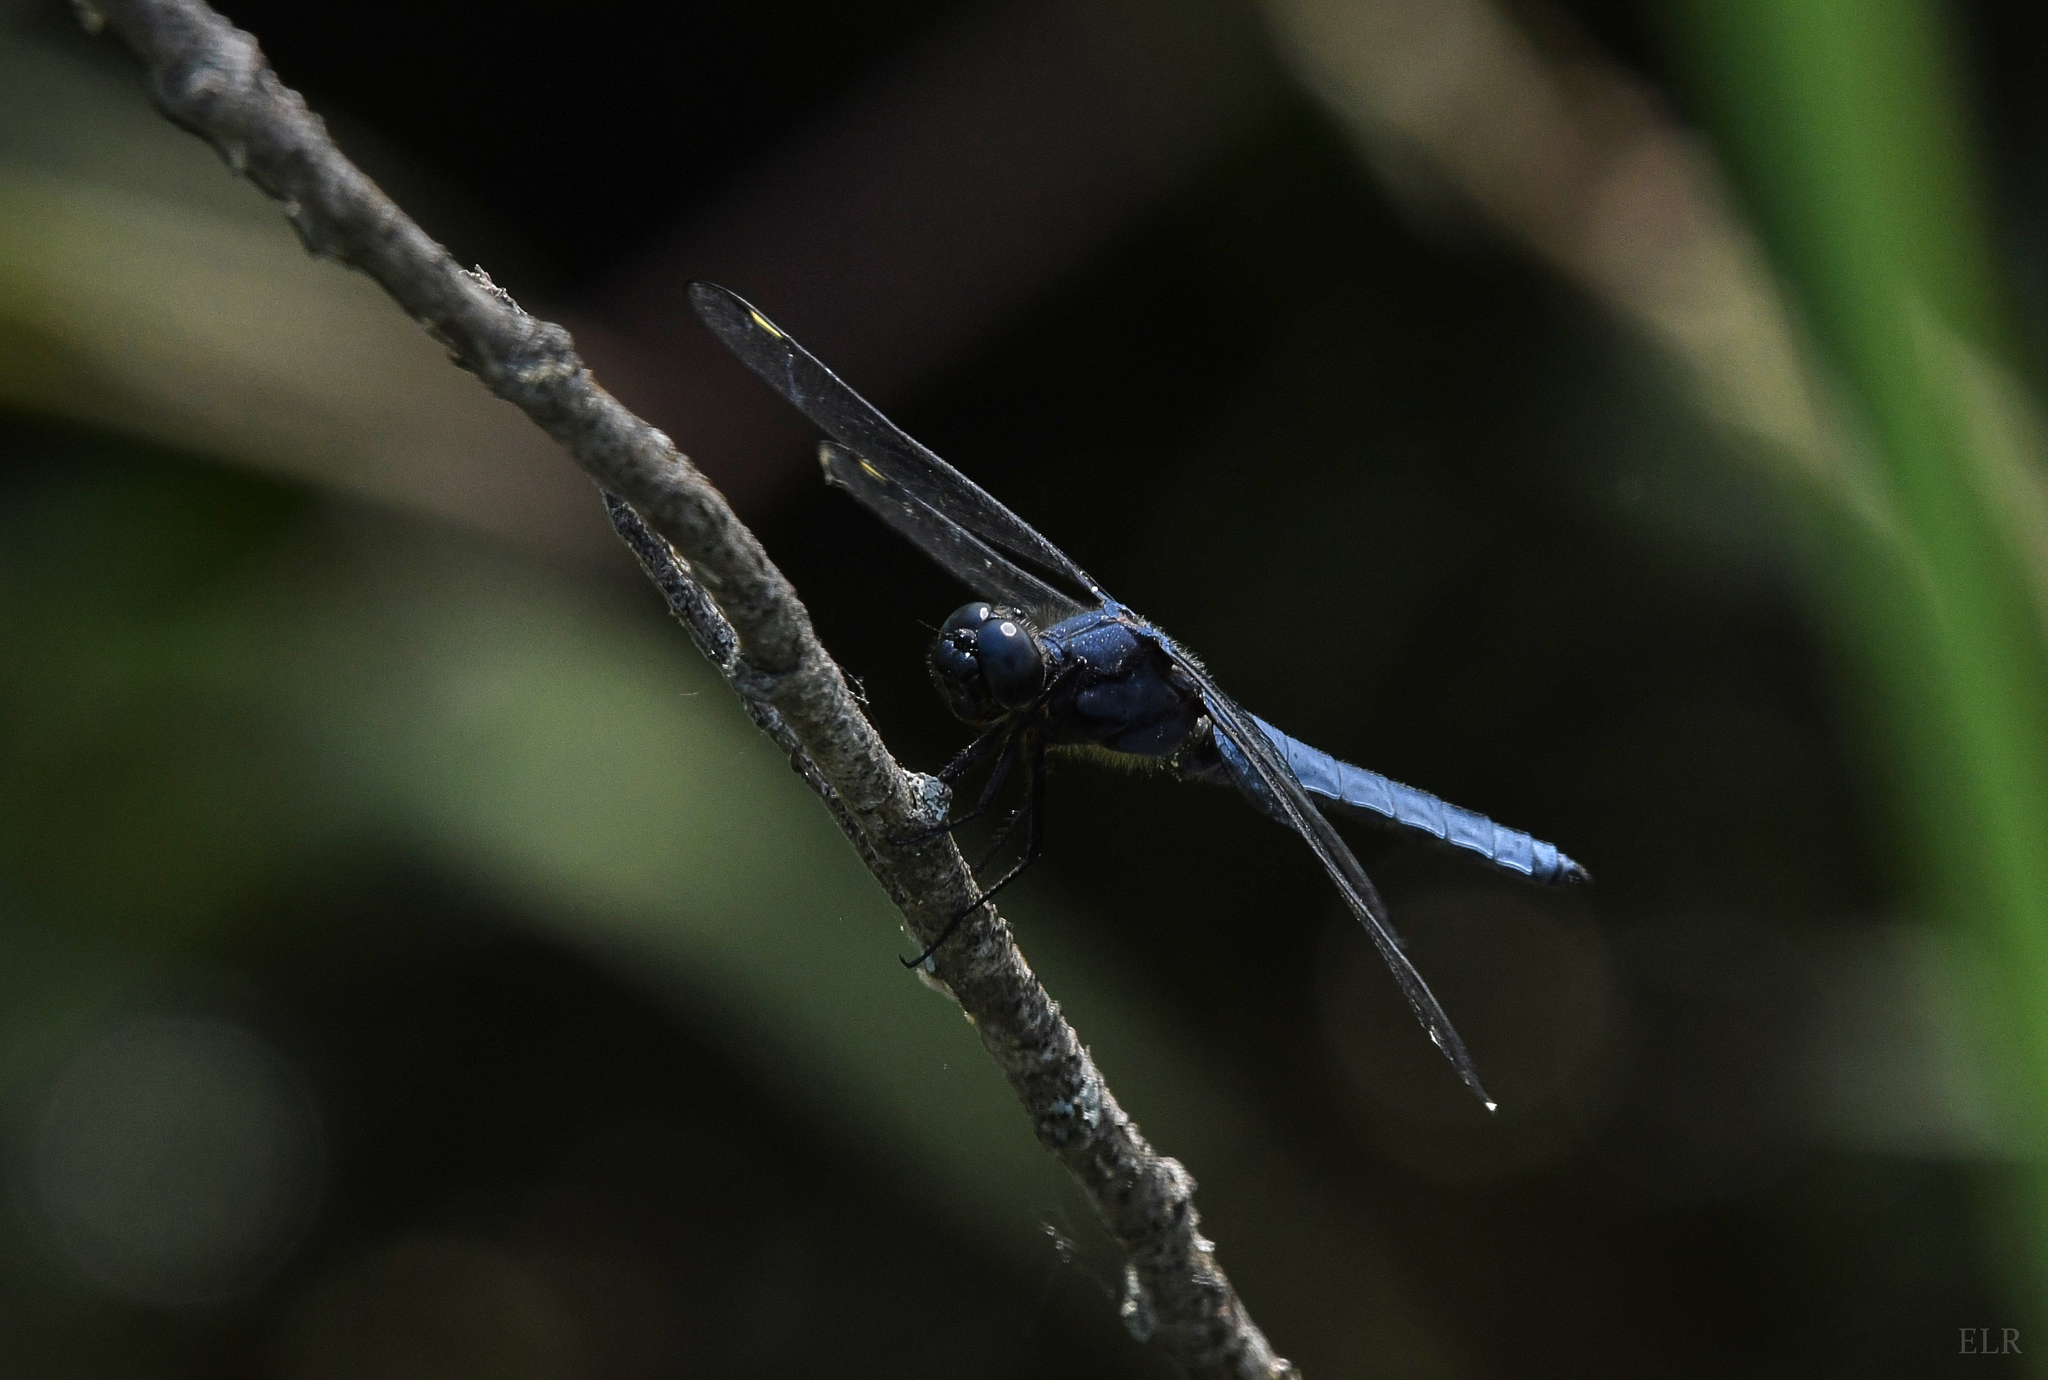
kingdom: Animalia
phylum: Arthropoda
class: Insecta
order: Odonata
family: Libellulidae
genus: Libellula
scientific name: Libellula cyanea
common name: Spangled skimmer
